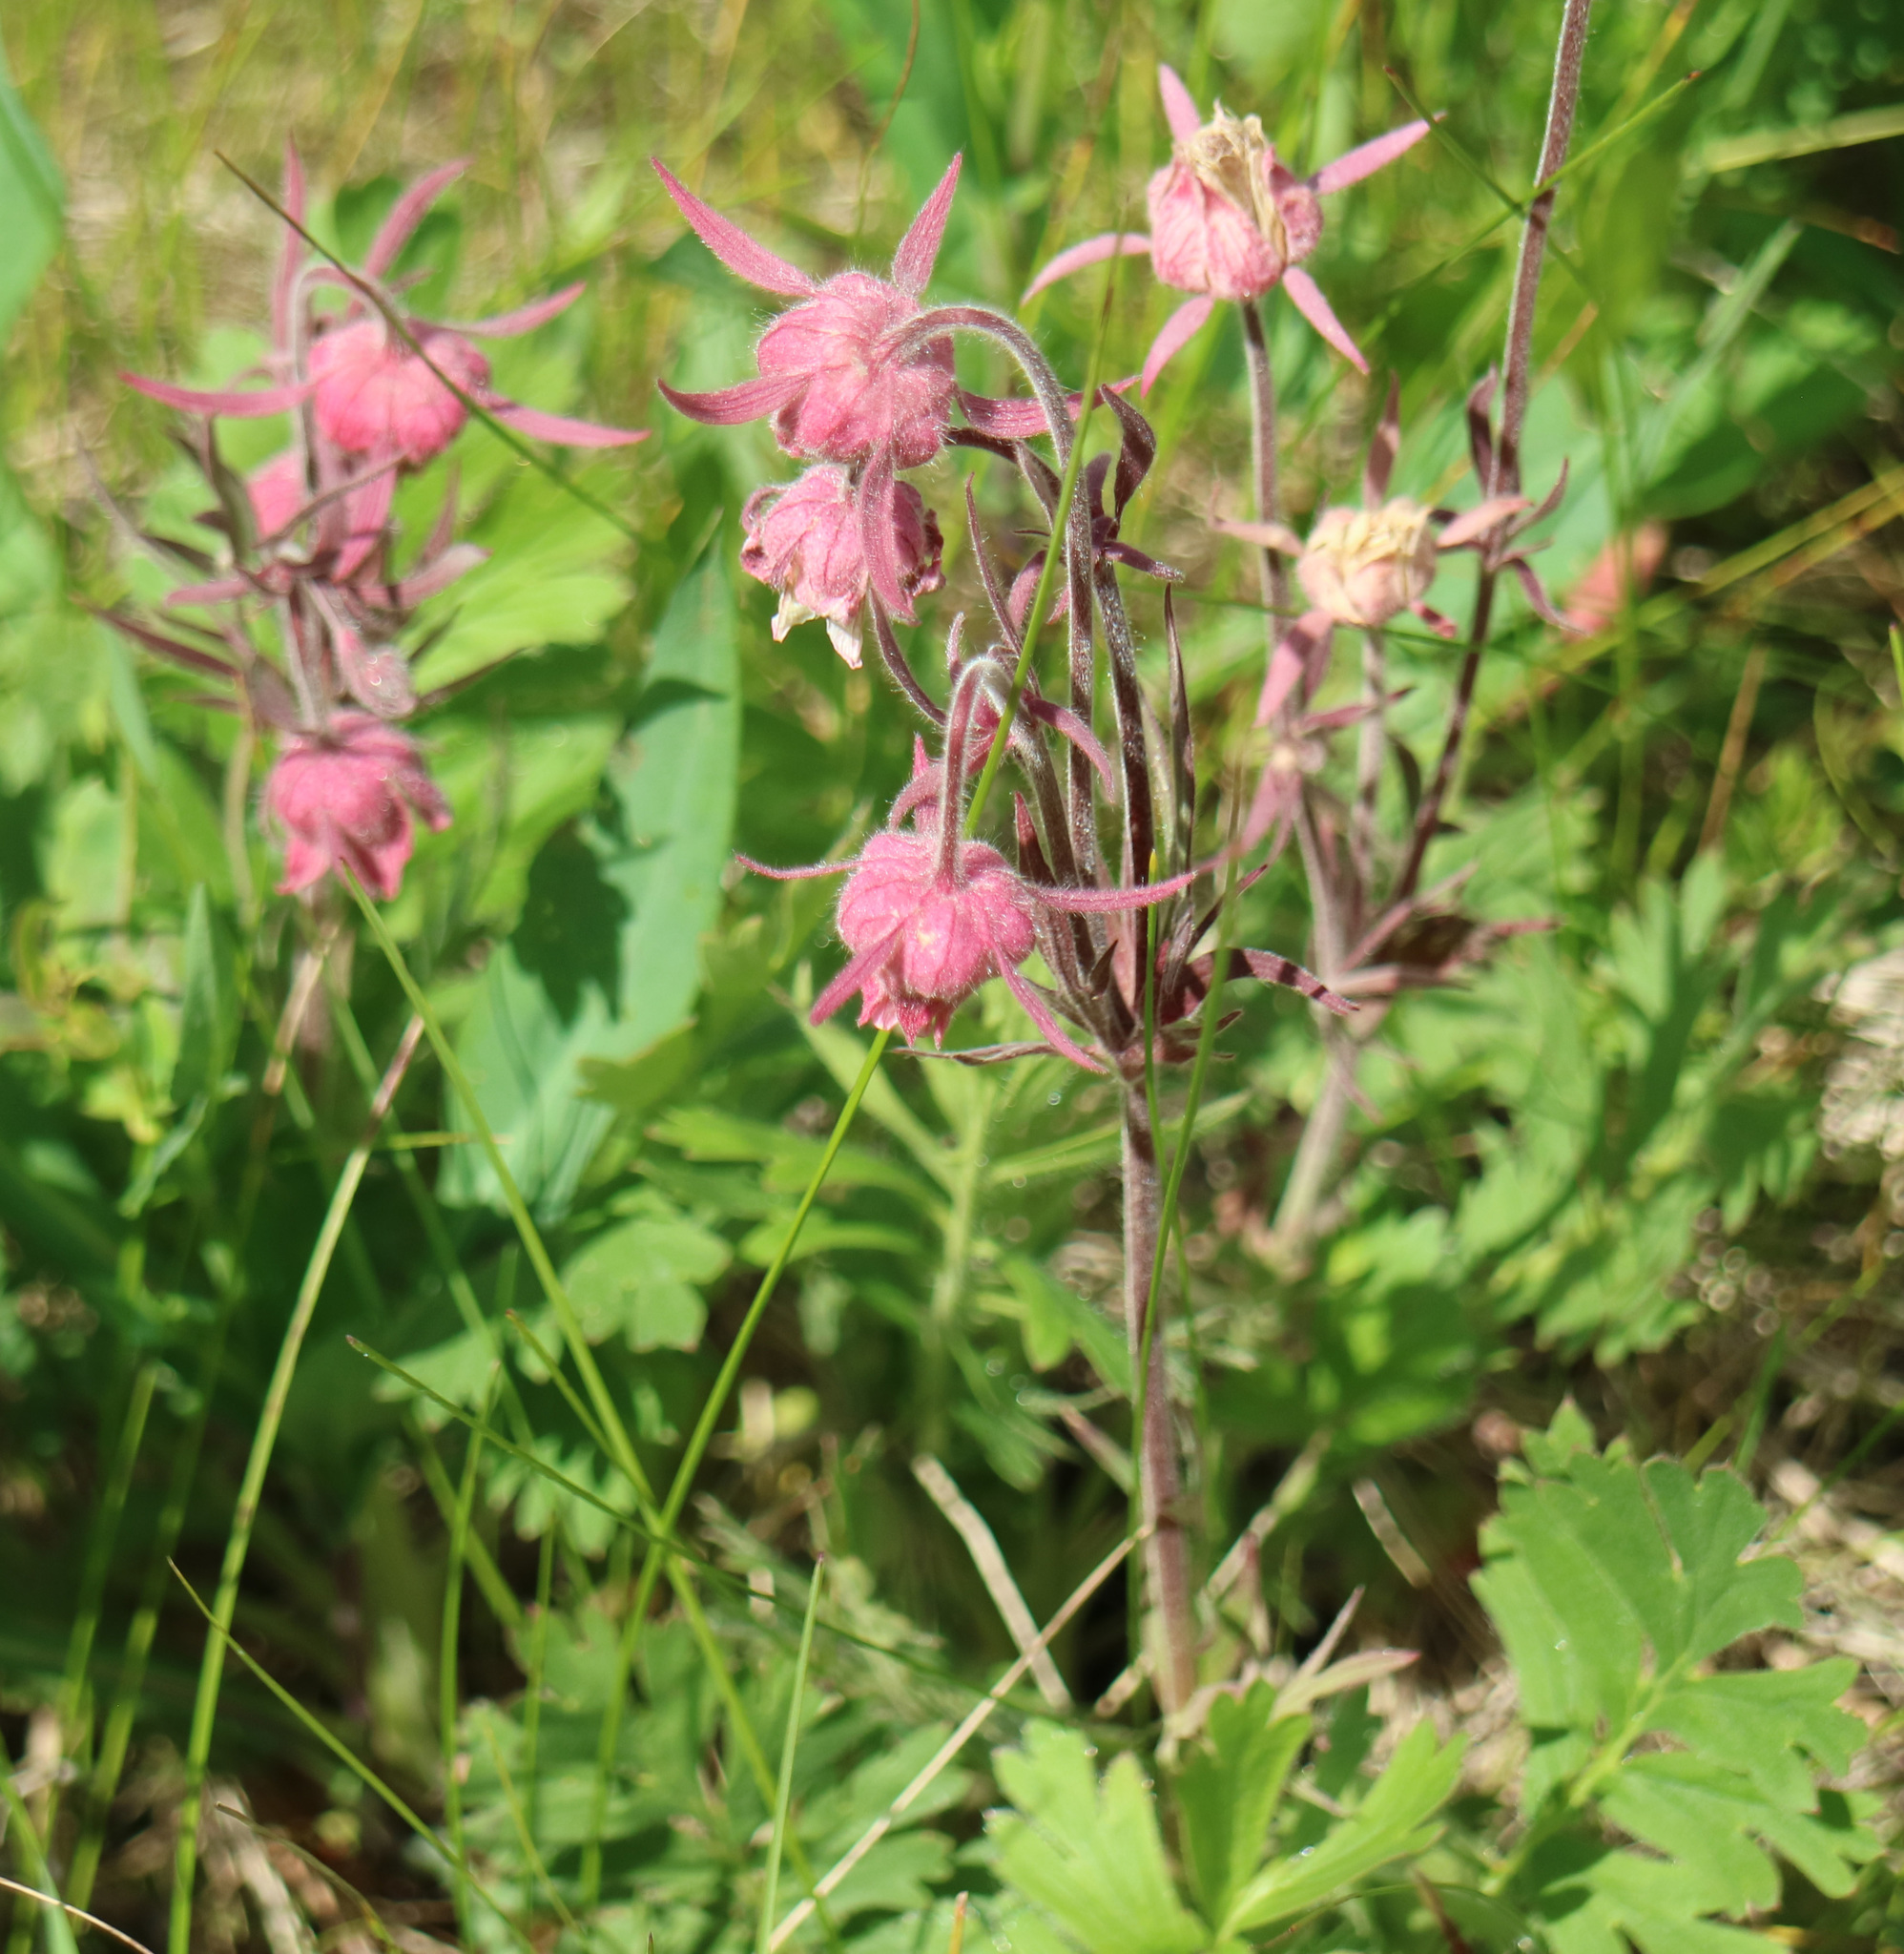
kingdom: Plantae
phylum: Tracheophyta
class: Magnoliopsida
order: Rosales
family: Rosaceae
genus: Geum
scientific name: Geum triflorum
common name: Old man's whiskers
